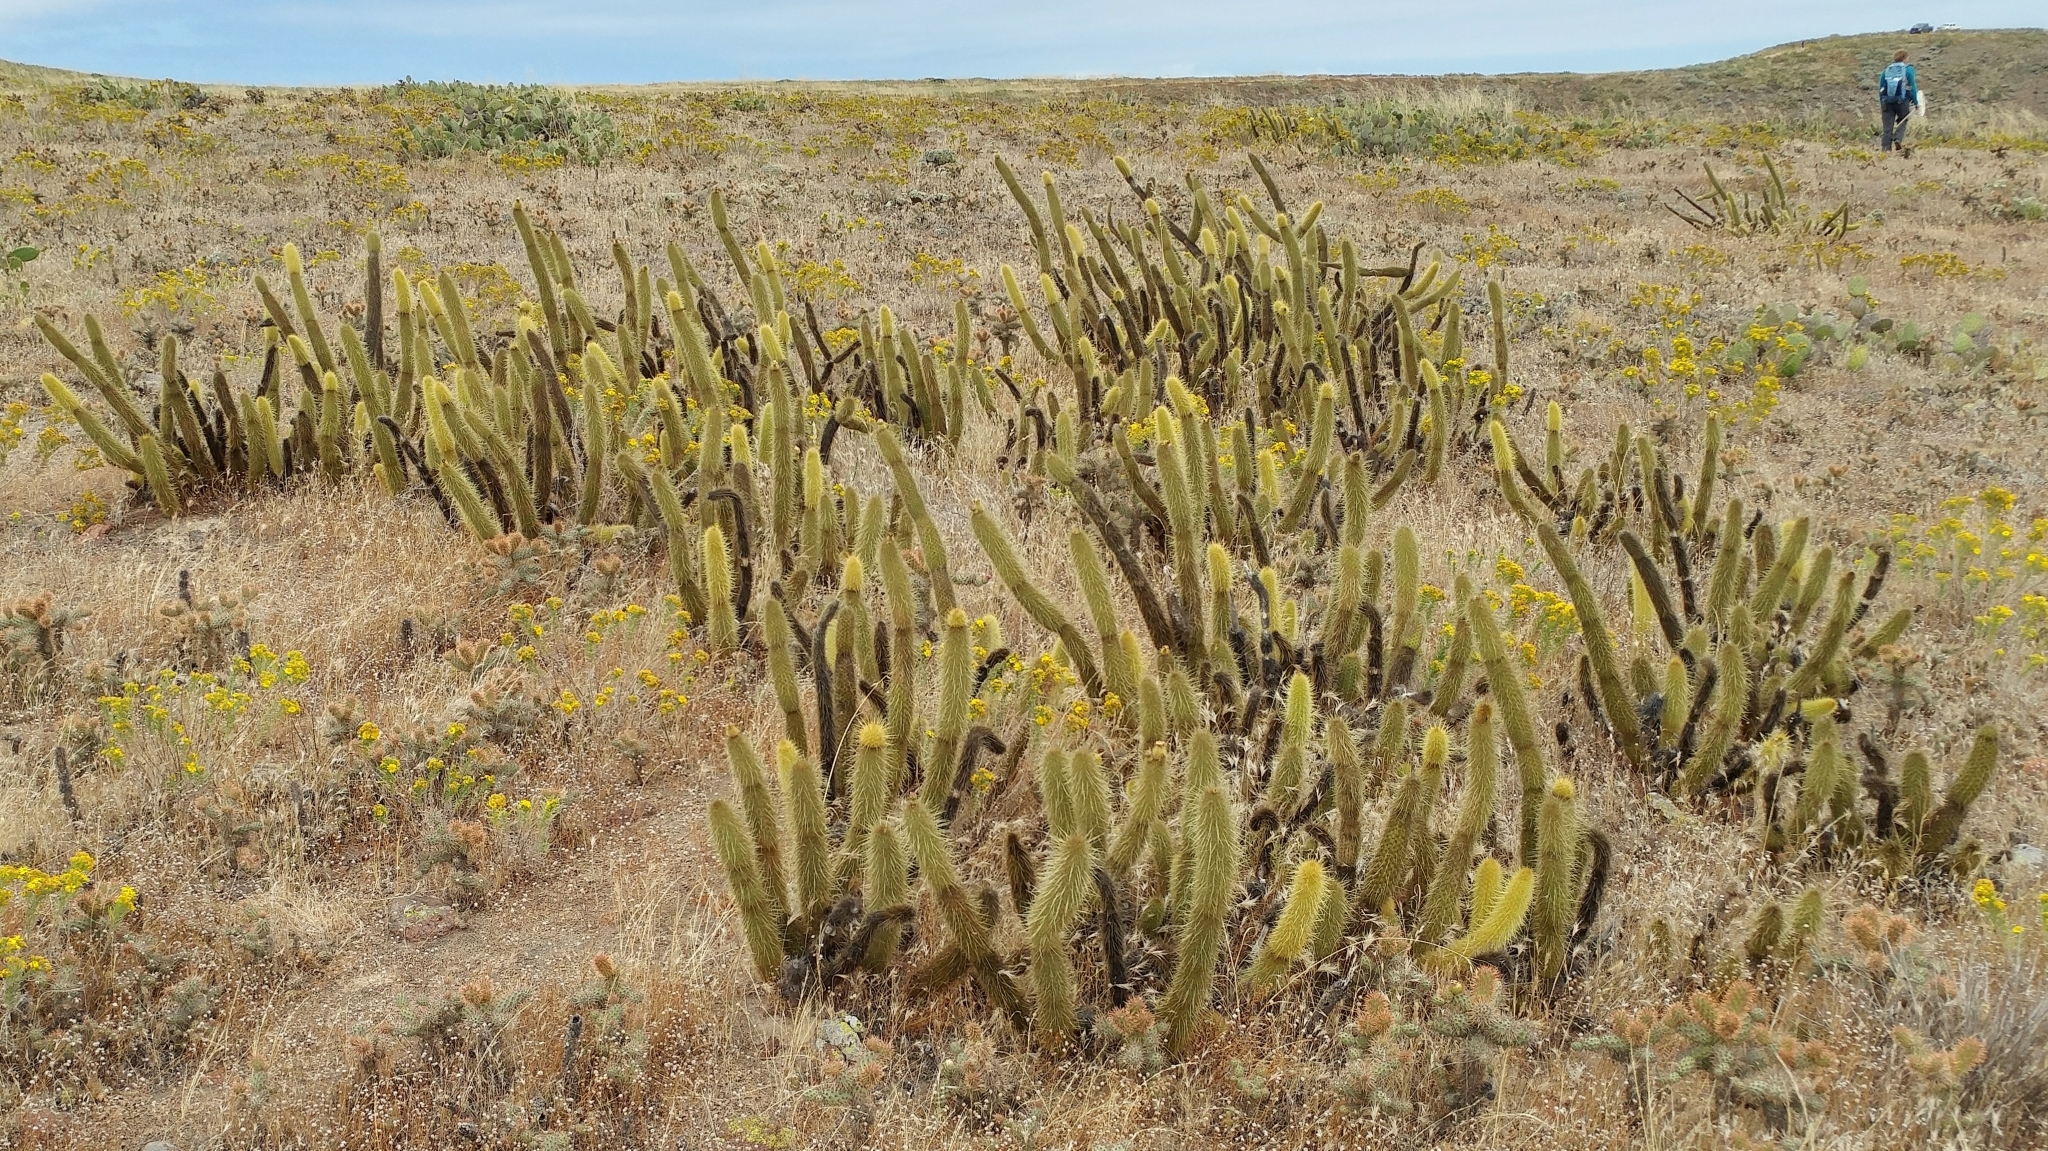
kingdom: Plantae
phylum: Tracheophyta
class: Magnoliopsida
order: Caryophyllales
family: Cactaceae
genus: Bergerocactus
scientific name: Bergerocactus emoryi
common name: Golden snakecactus
